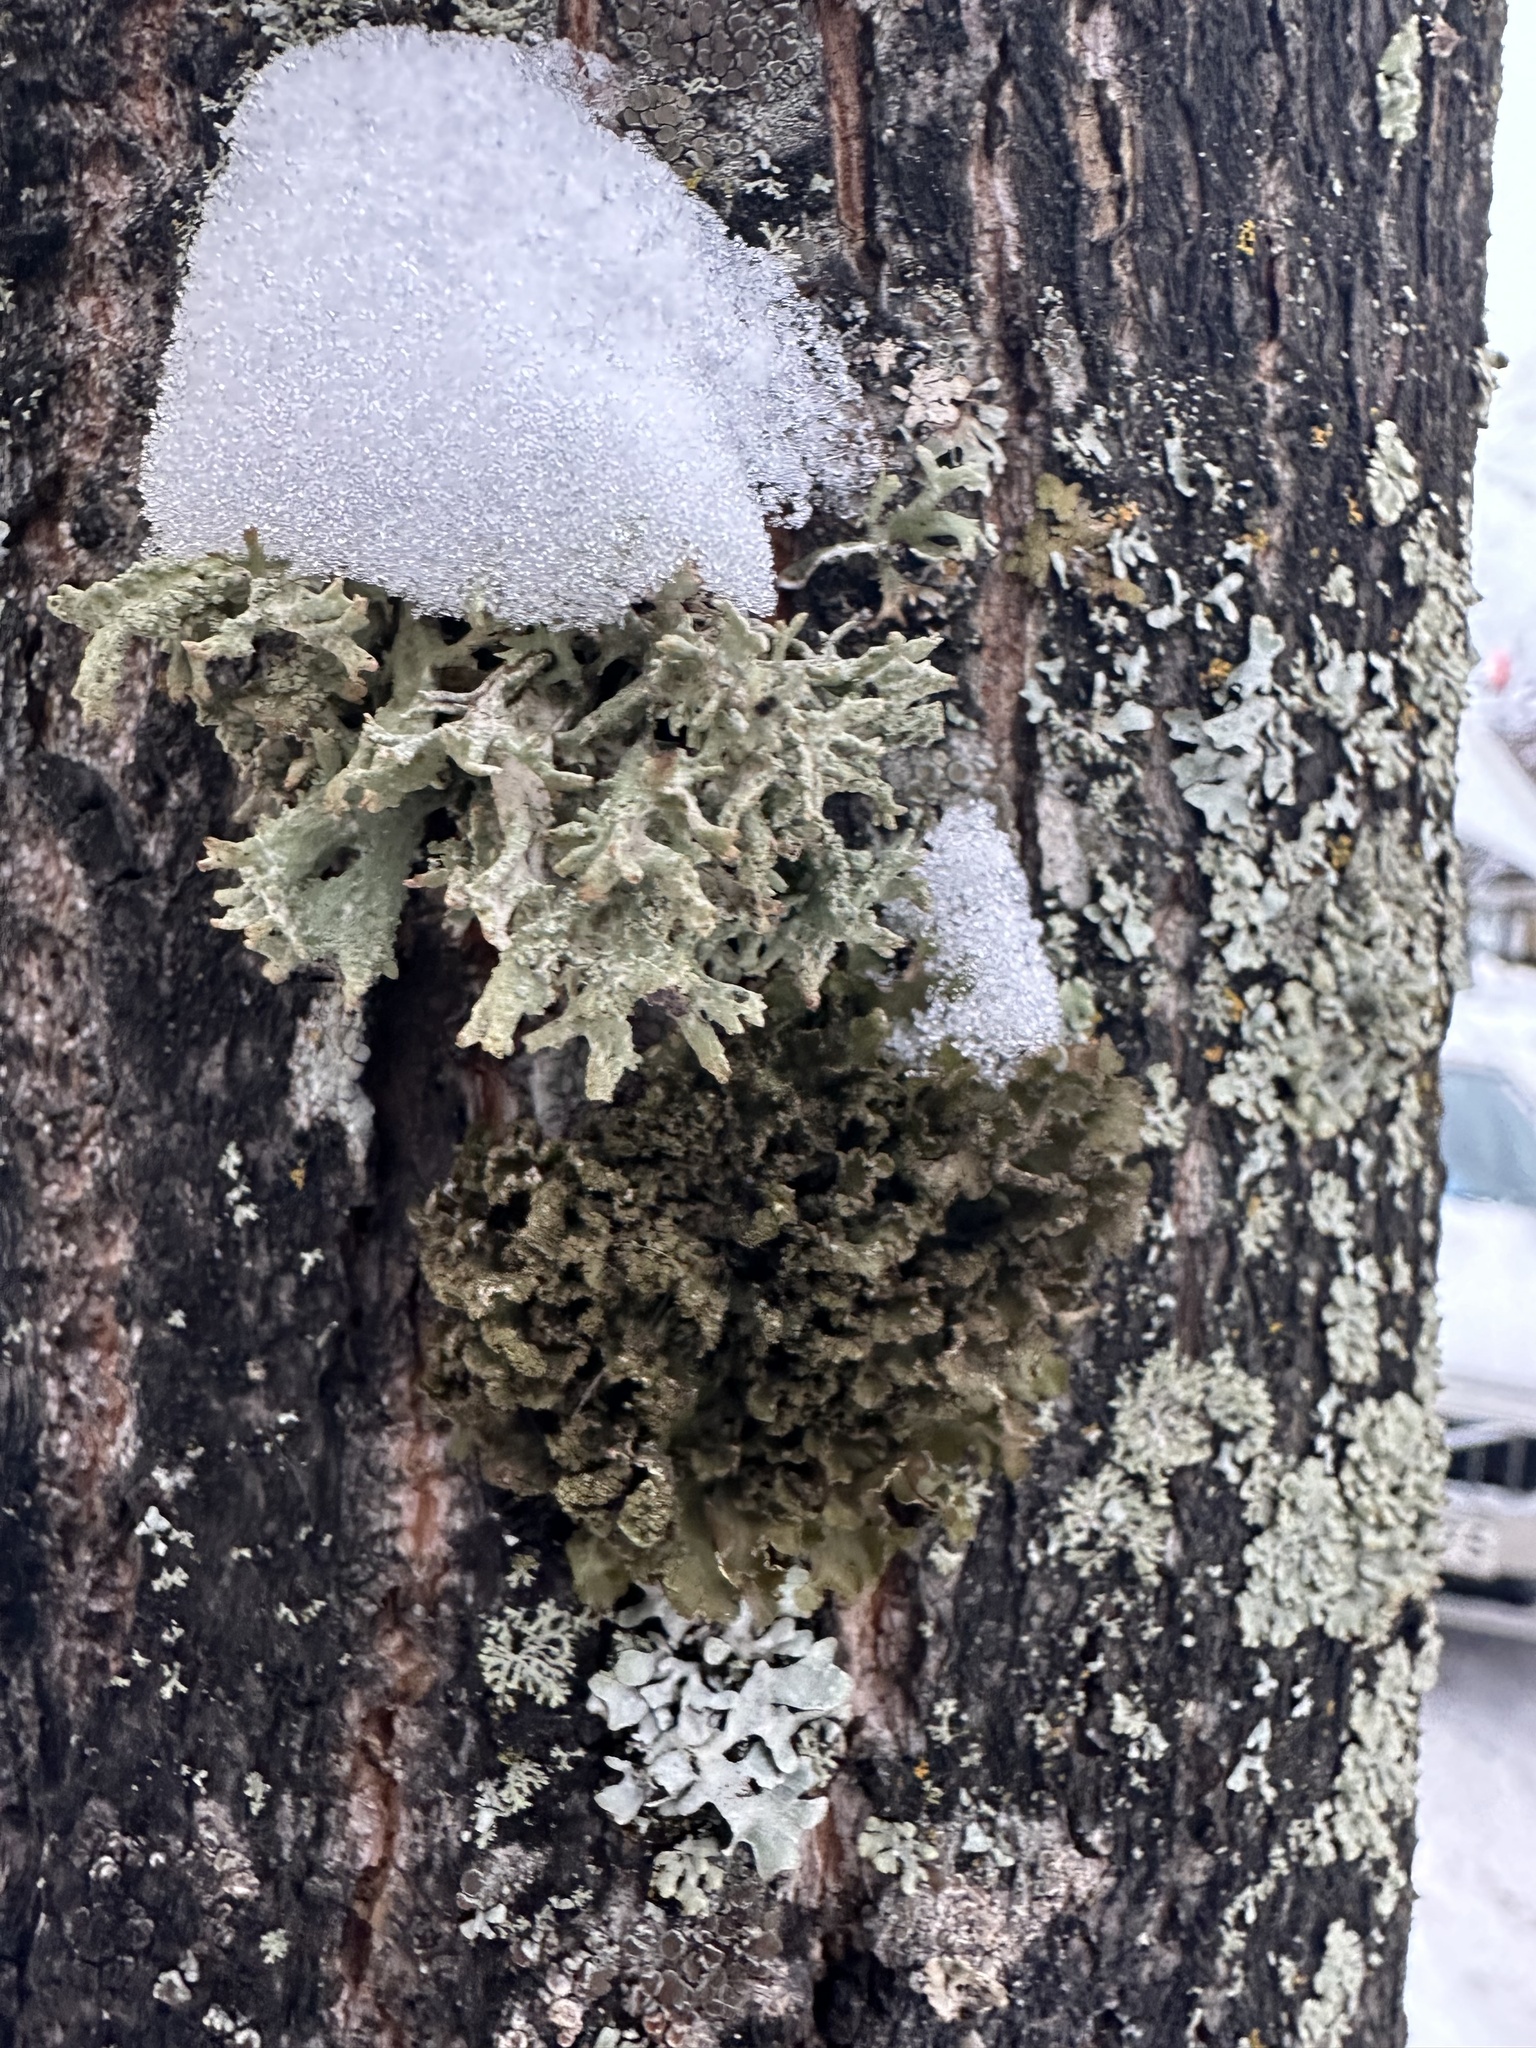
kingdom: Fungi
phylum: Ascomycota
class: Lecanoromycetes
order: Lecanorales
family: Parmeliaceae
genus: Nephromopsis
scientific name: Nephromopsis chlorophylla
